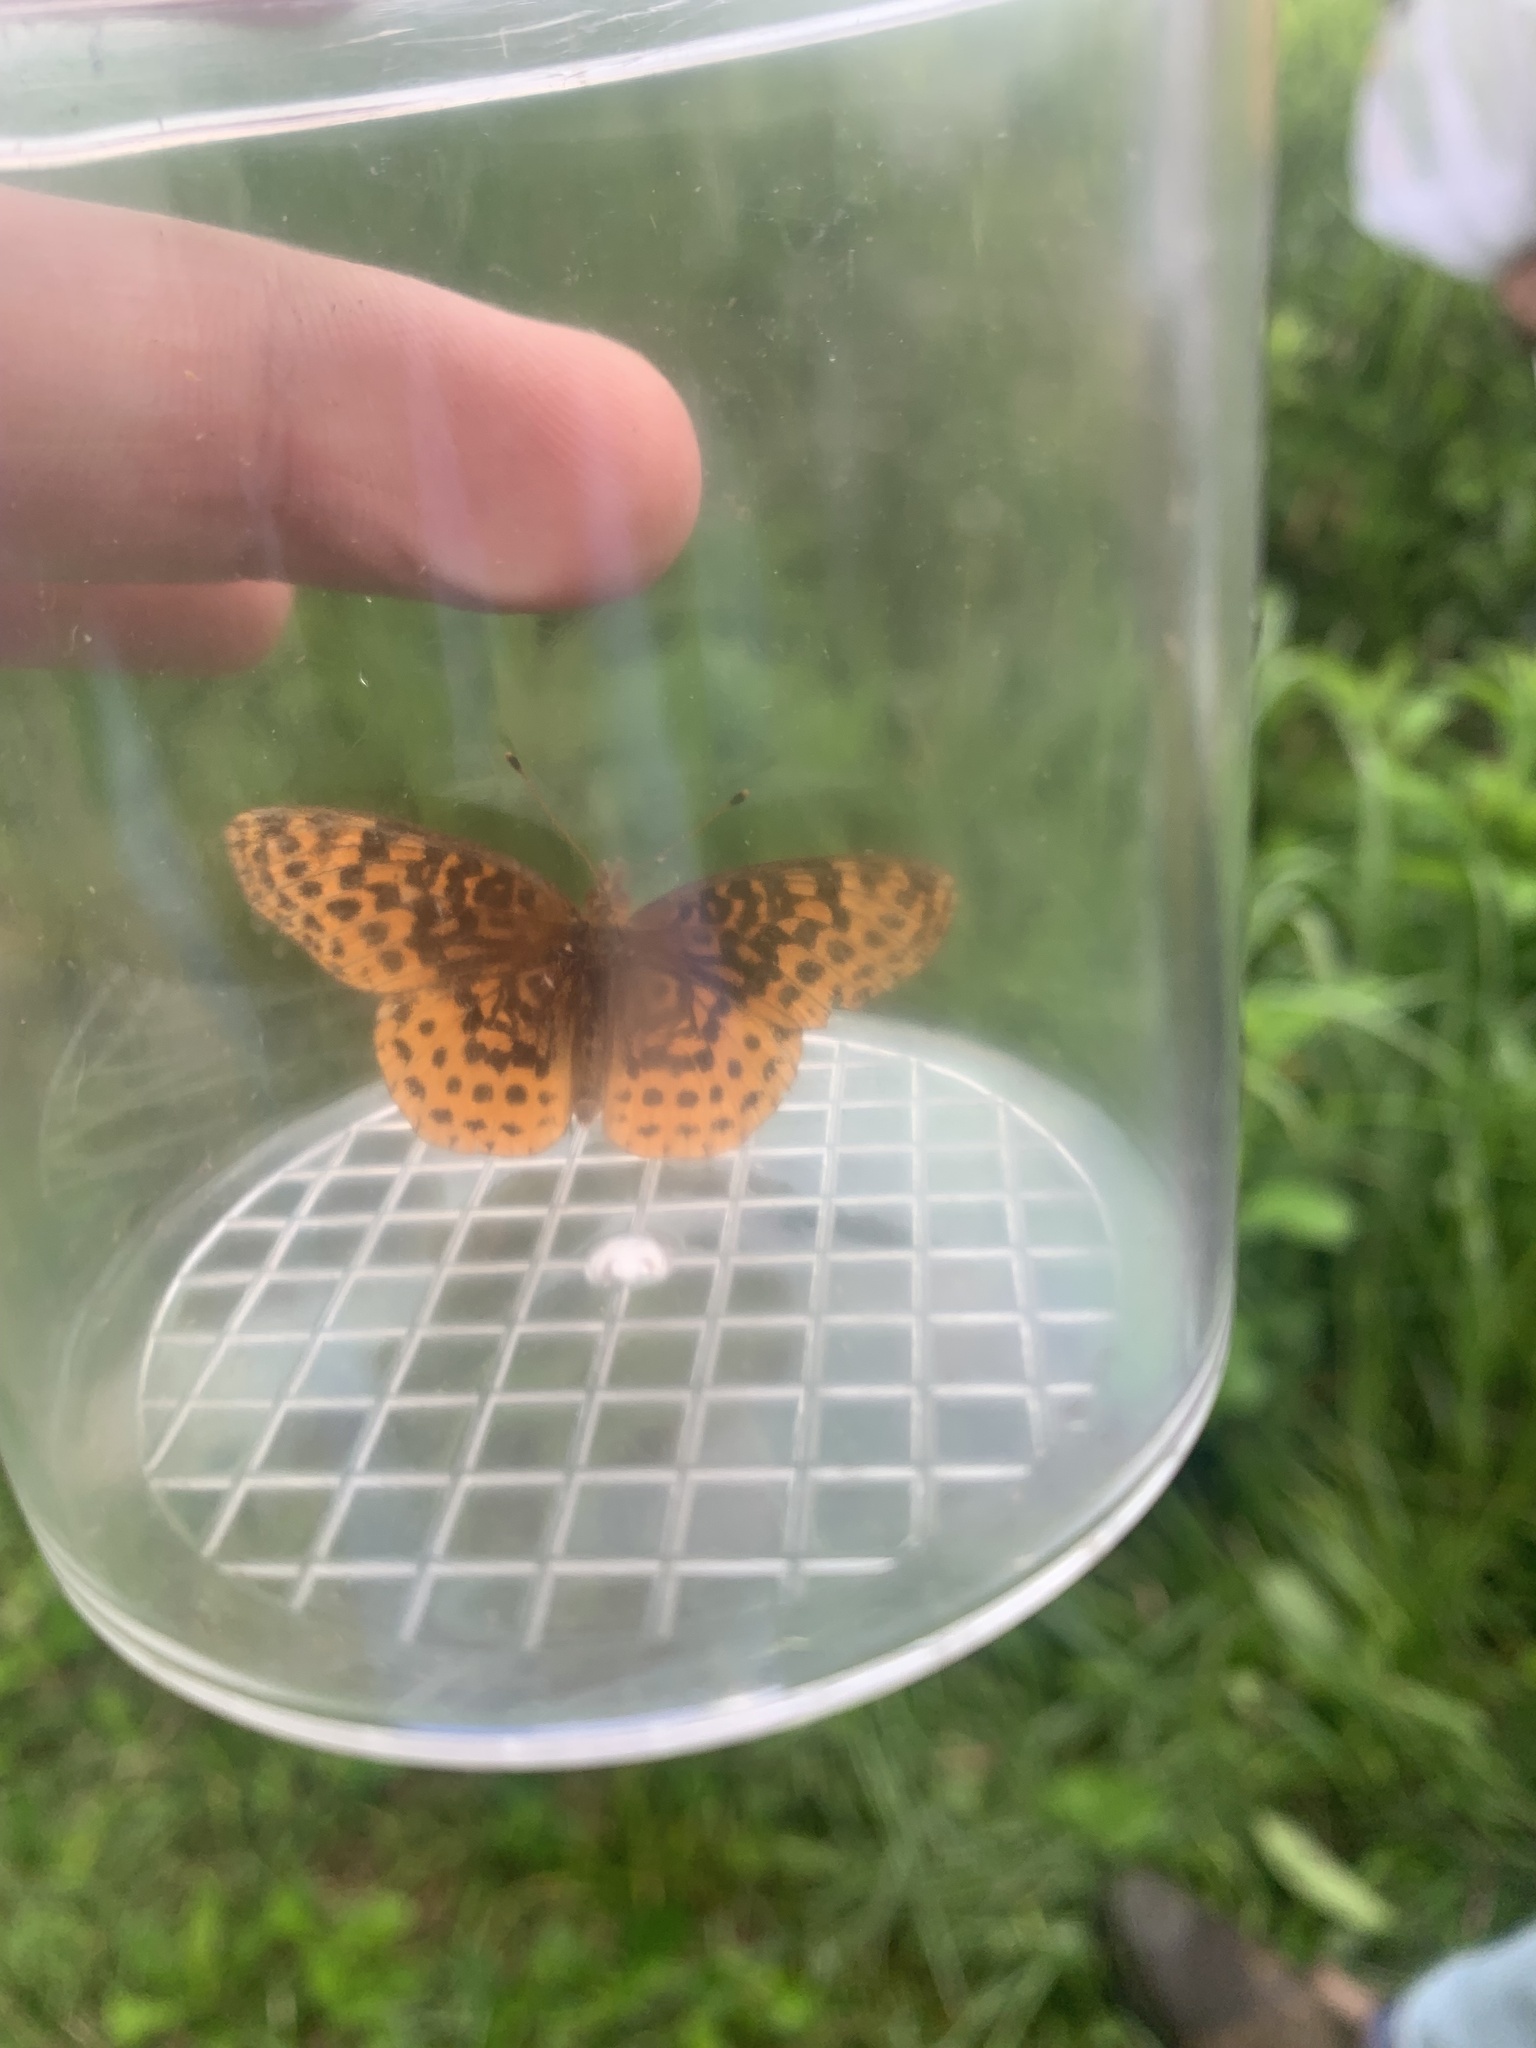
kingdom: Animalia
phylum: Arthropoda
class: Insecta
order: Lepidoptera
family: Nymphalidae
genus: Clossiana
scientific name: Clossiana toddi
